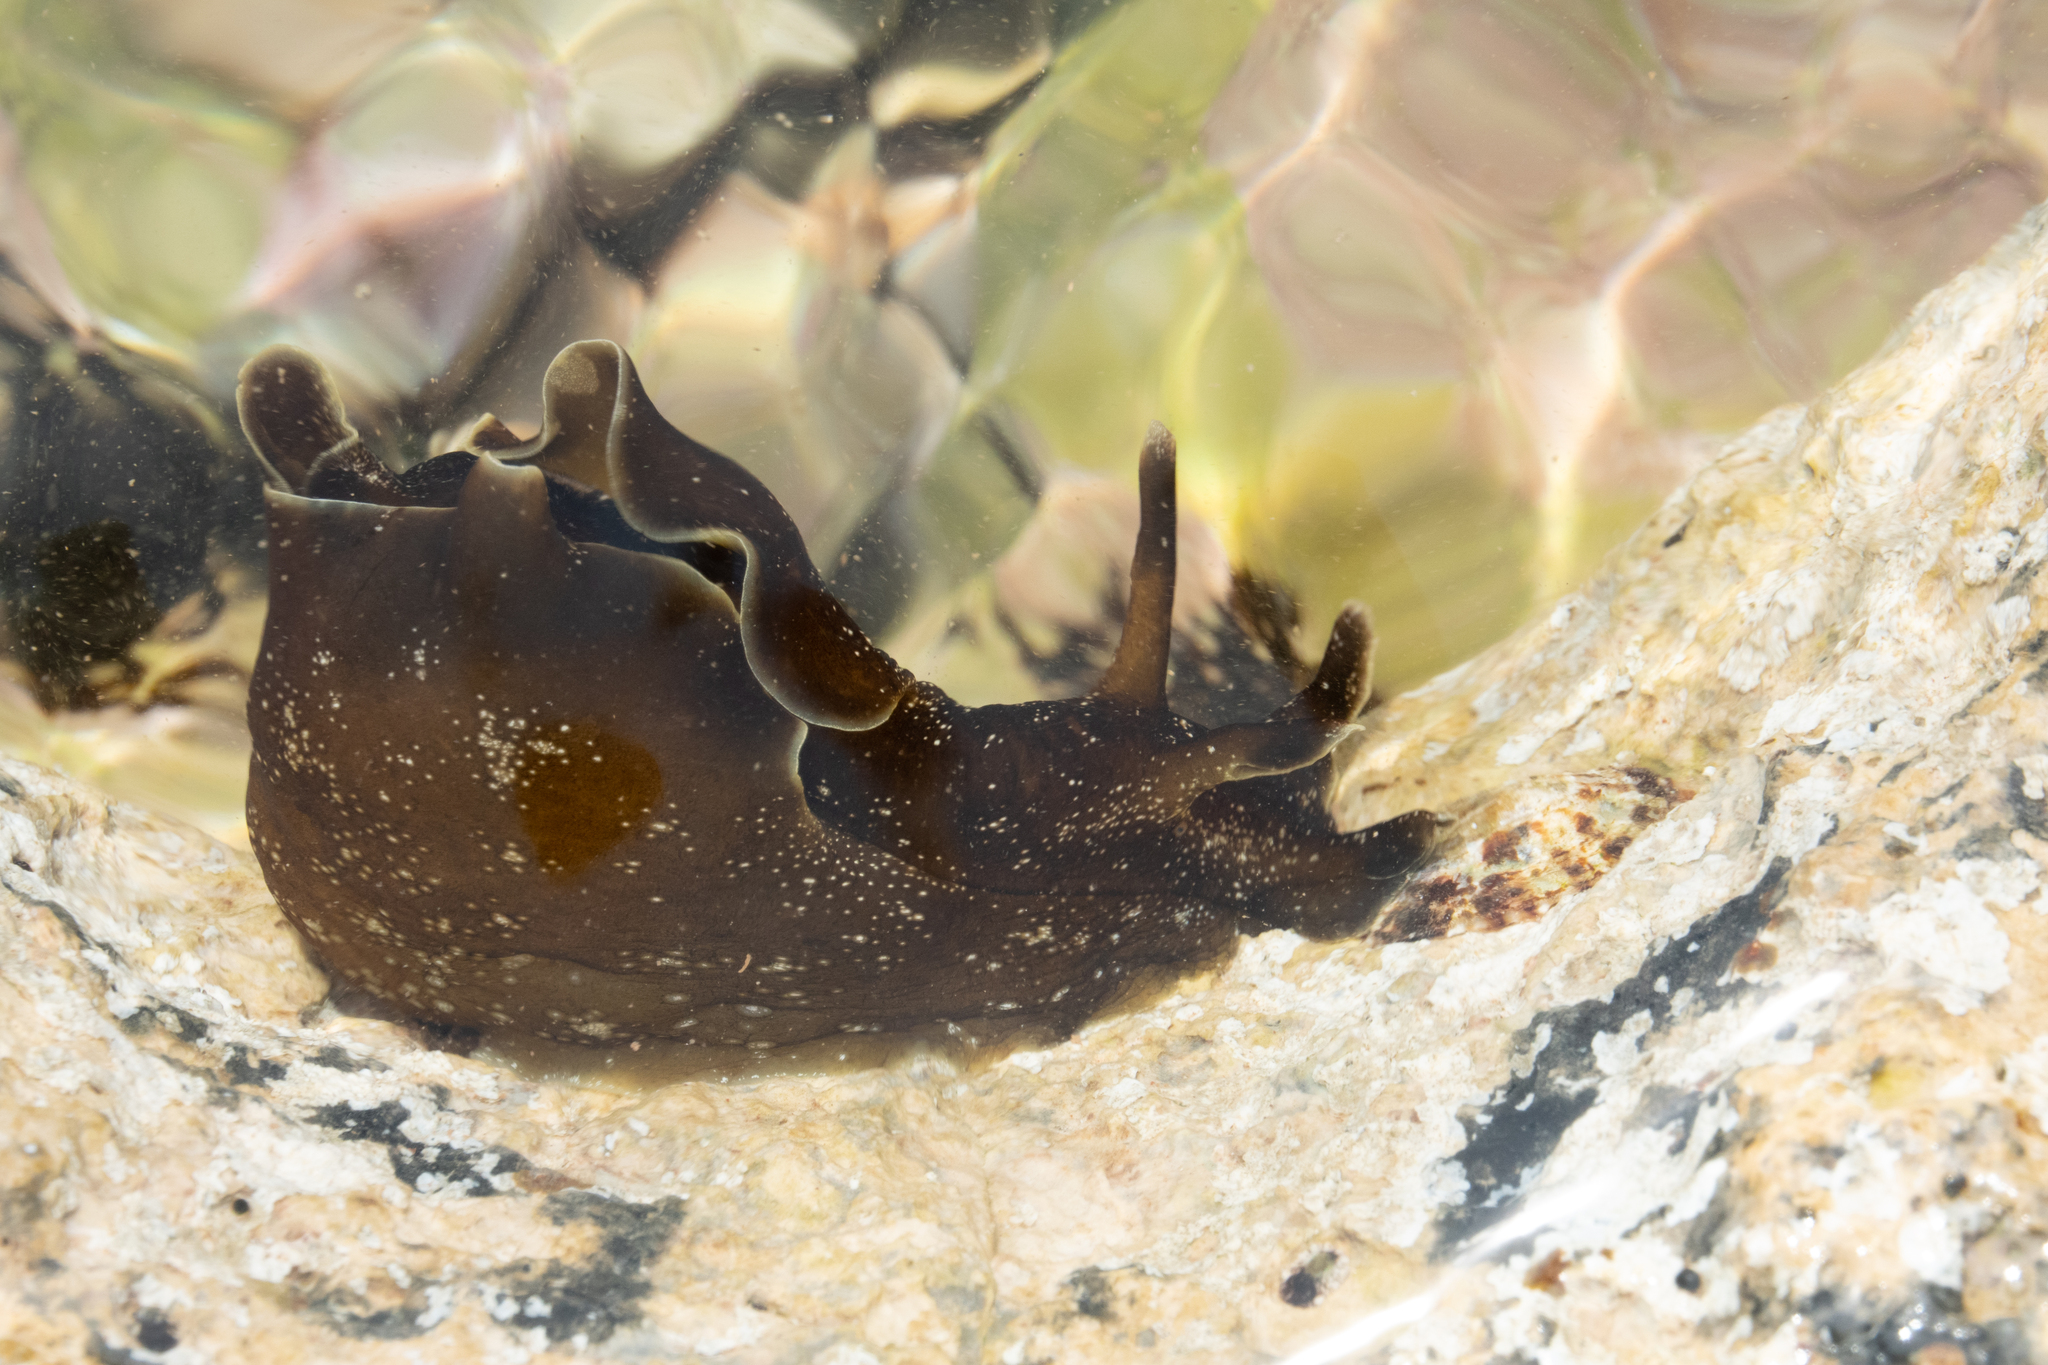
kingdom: Animalia
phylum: Mollusca
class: Gastropoda
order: Aplysiida
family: Aplysiidae
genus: Aplysia
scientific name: Aplysia punctata
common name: Common sea hare
